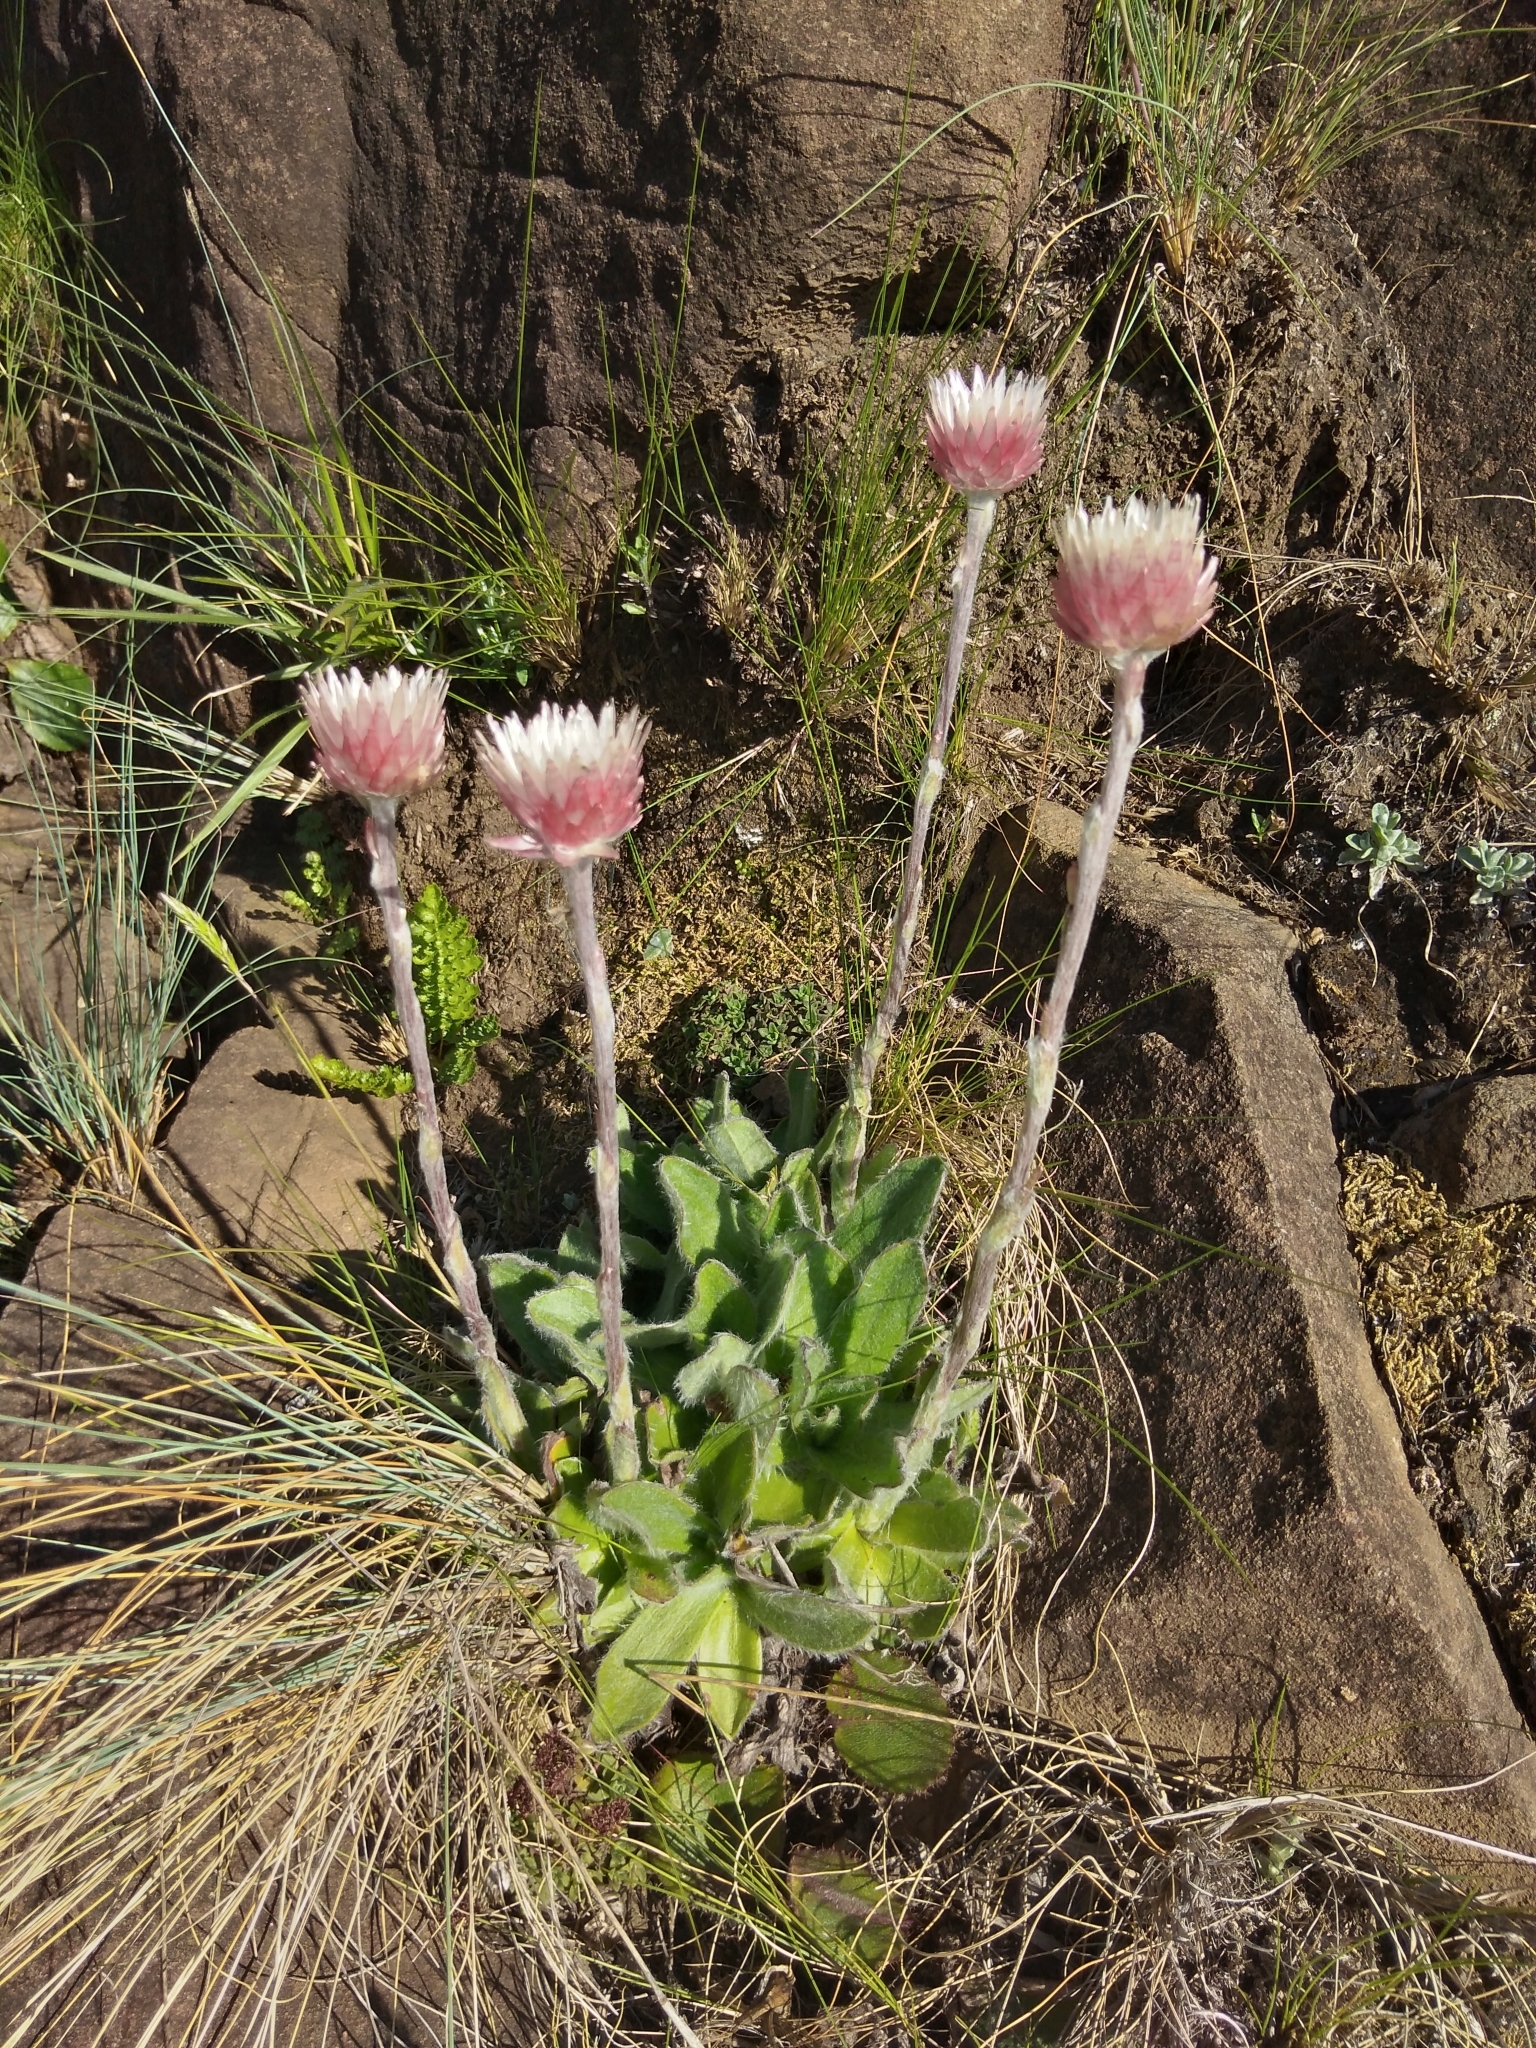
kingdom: Plantae
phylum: Tracheophyta
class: Magnoliopsida
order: Asterales
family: Asteraceae
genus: Helichrysum
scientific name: Helichrysum vernum
